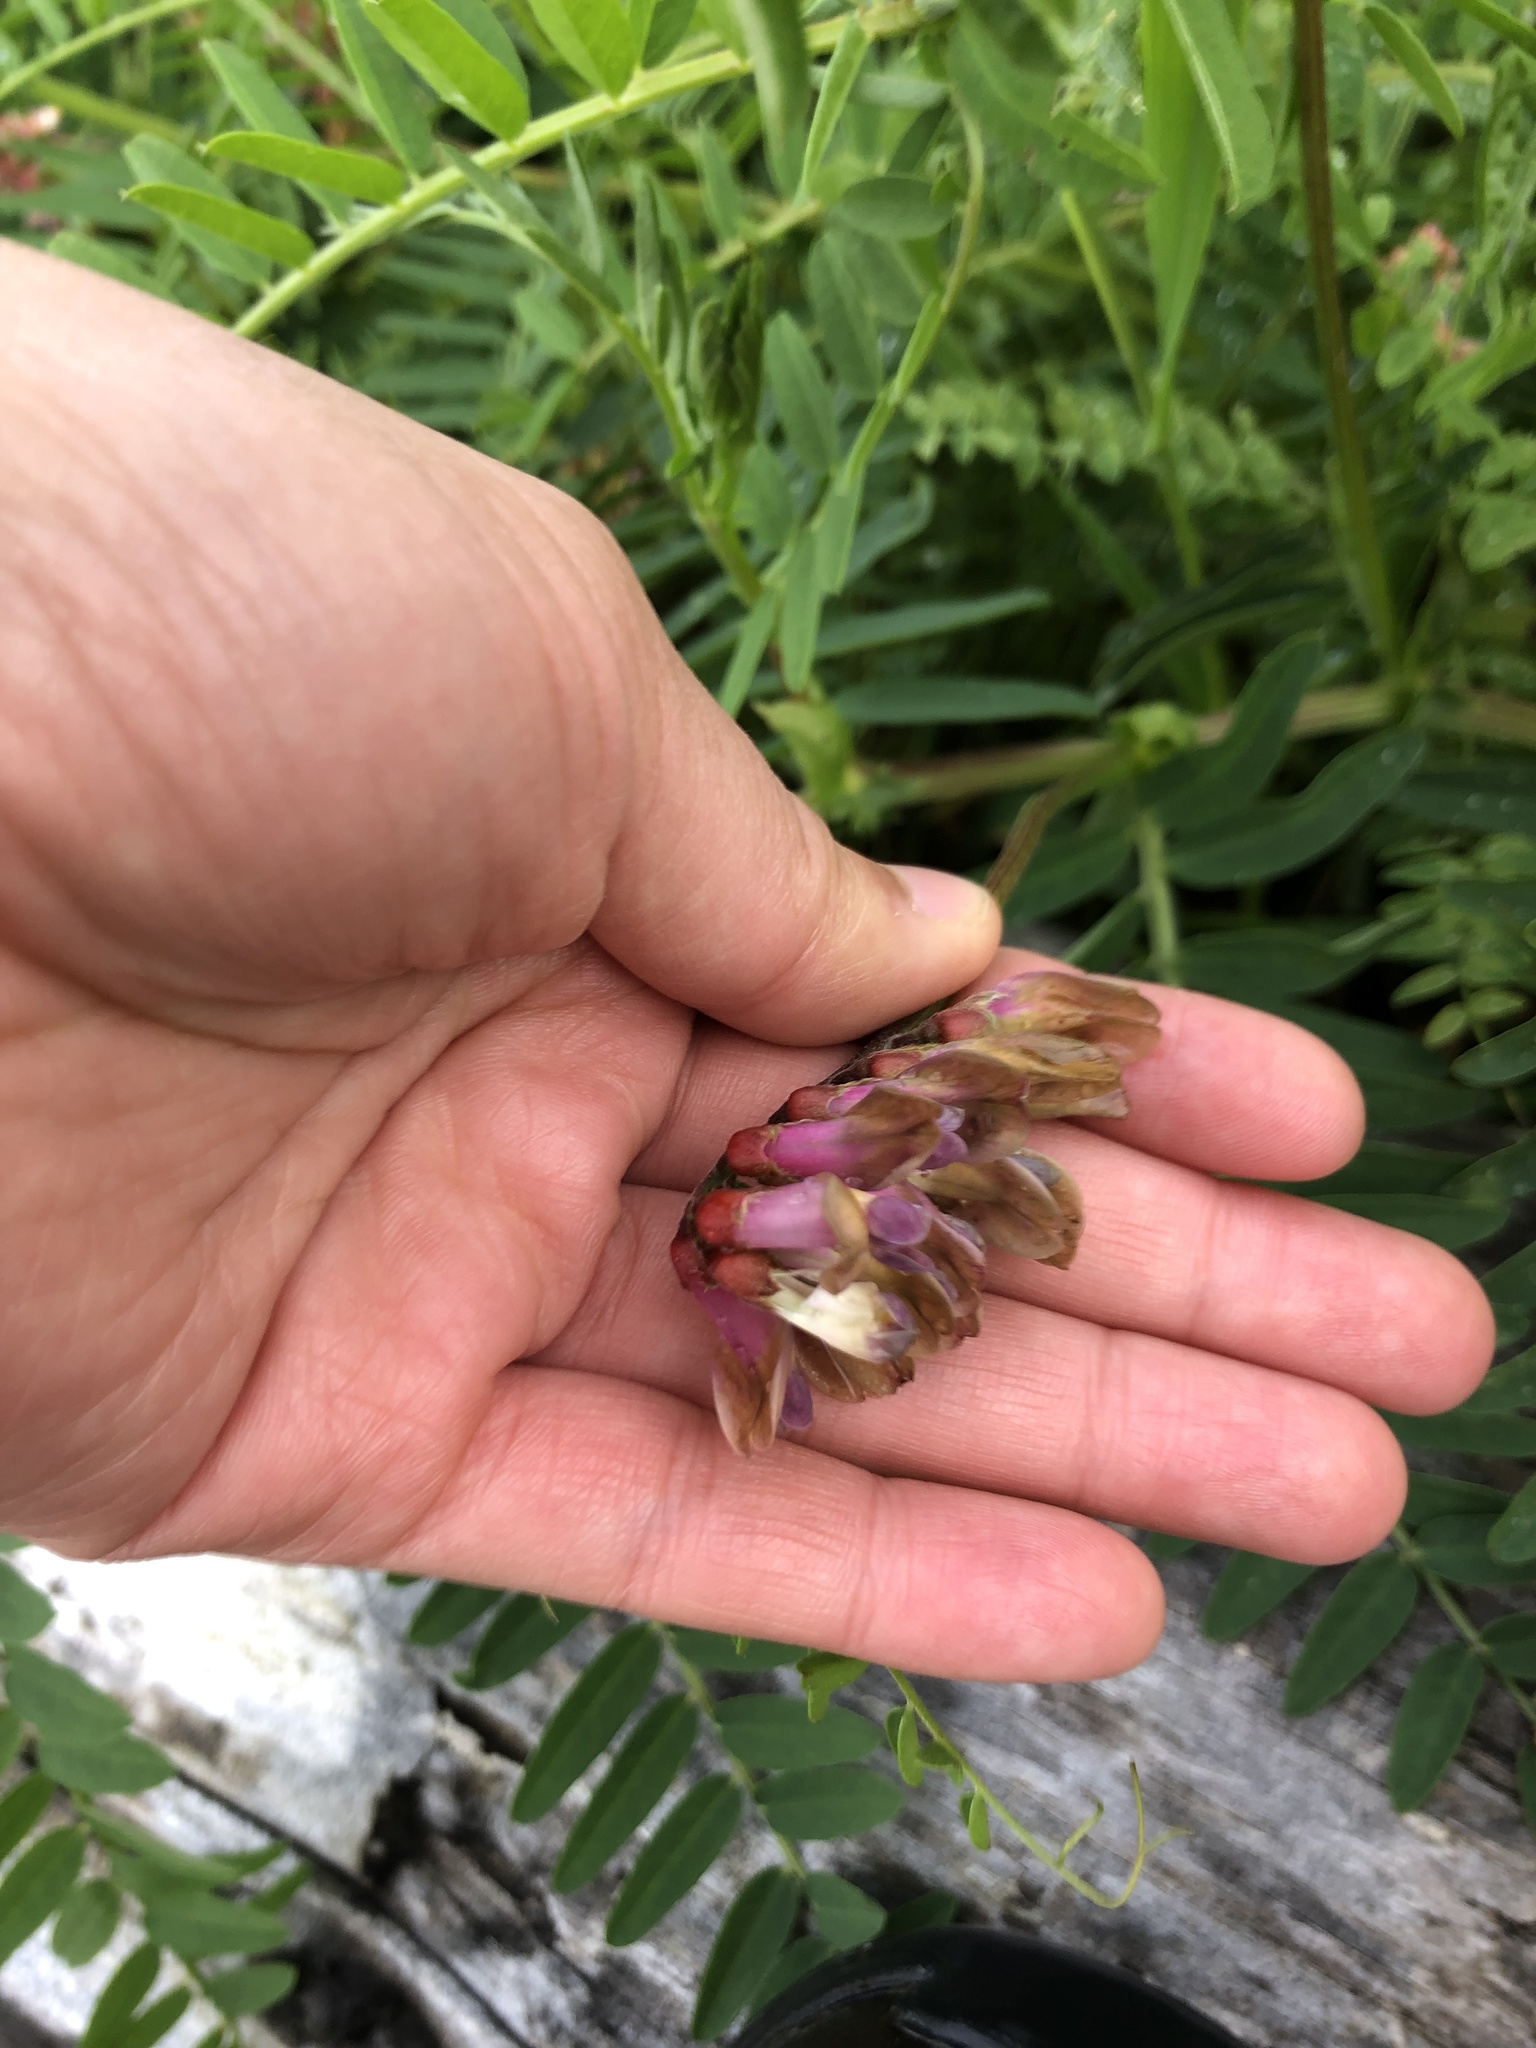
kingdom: Plantae
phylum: Tracheophyta
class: Magnoliopsida
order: Fabales
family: Fabaceae
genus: Vicia
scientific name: Vicia
